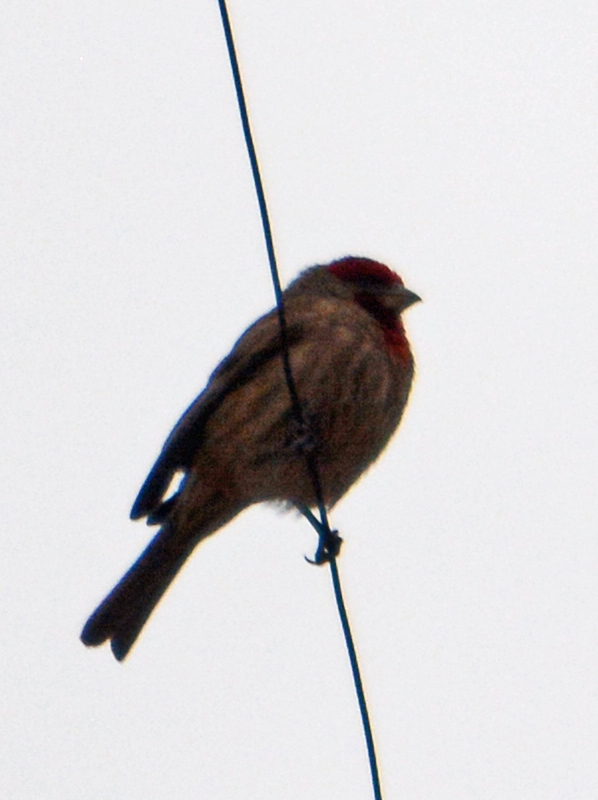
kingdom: Animalia
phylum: Chordata
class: Aves
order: Passeriformes
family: Fringillidae
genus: Haemorhous
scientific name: Haemorhous mexicanus
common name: House finch
